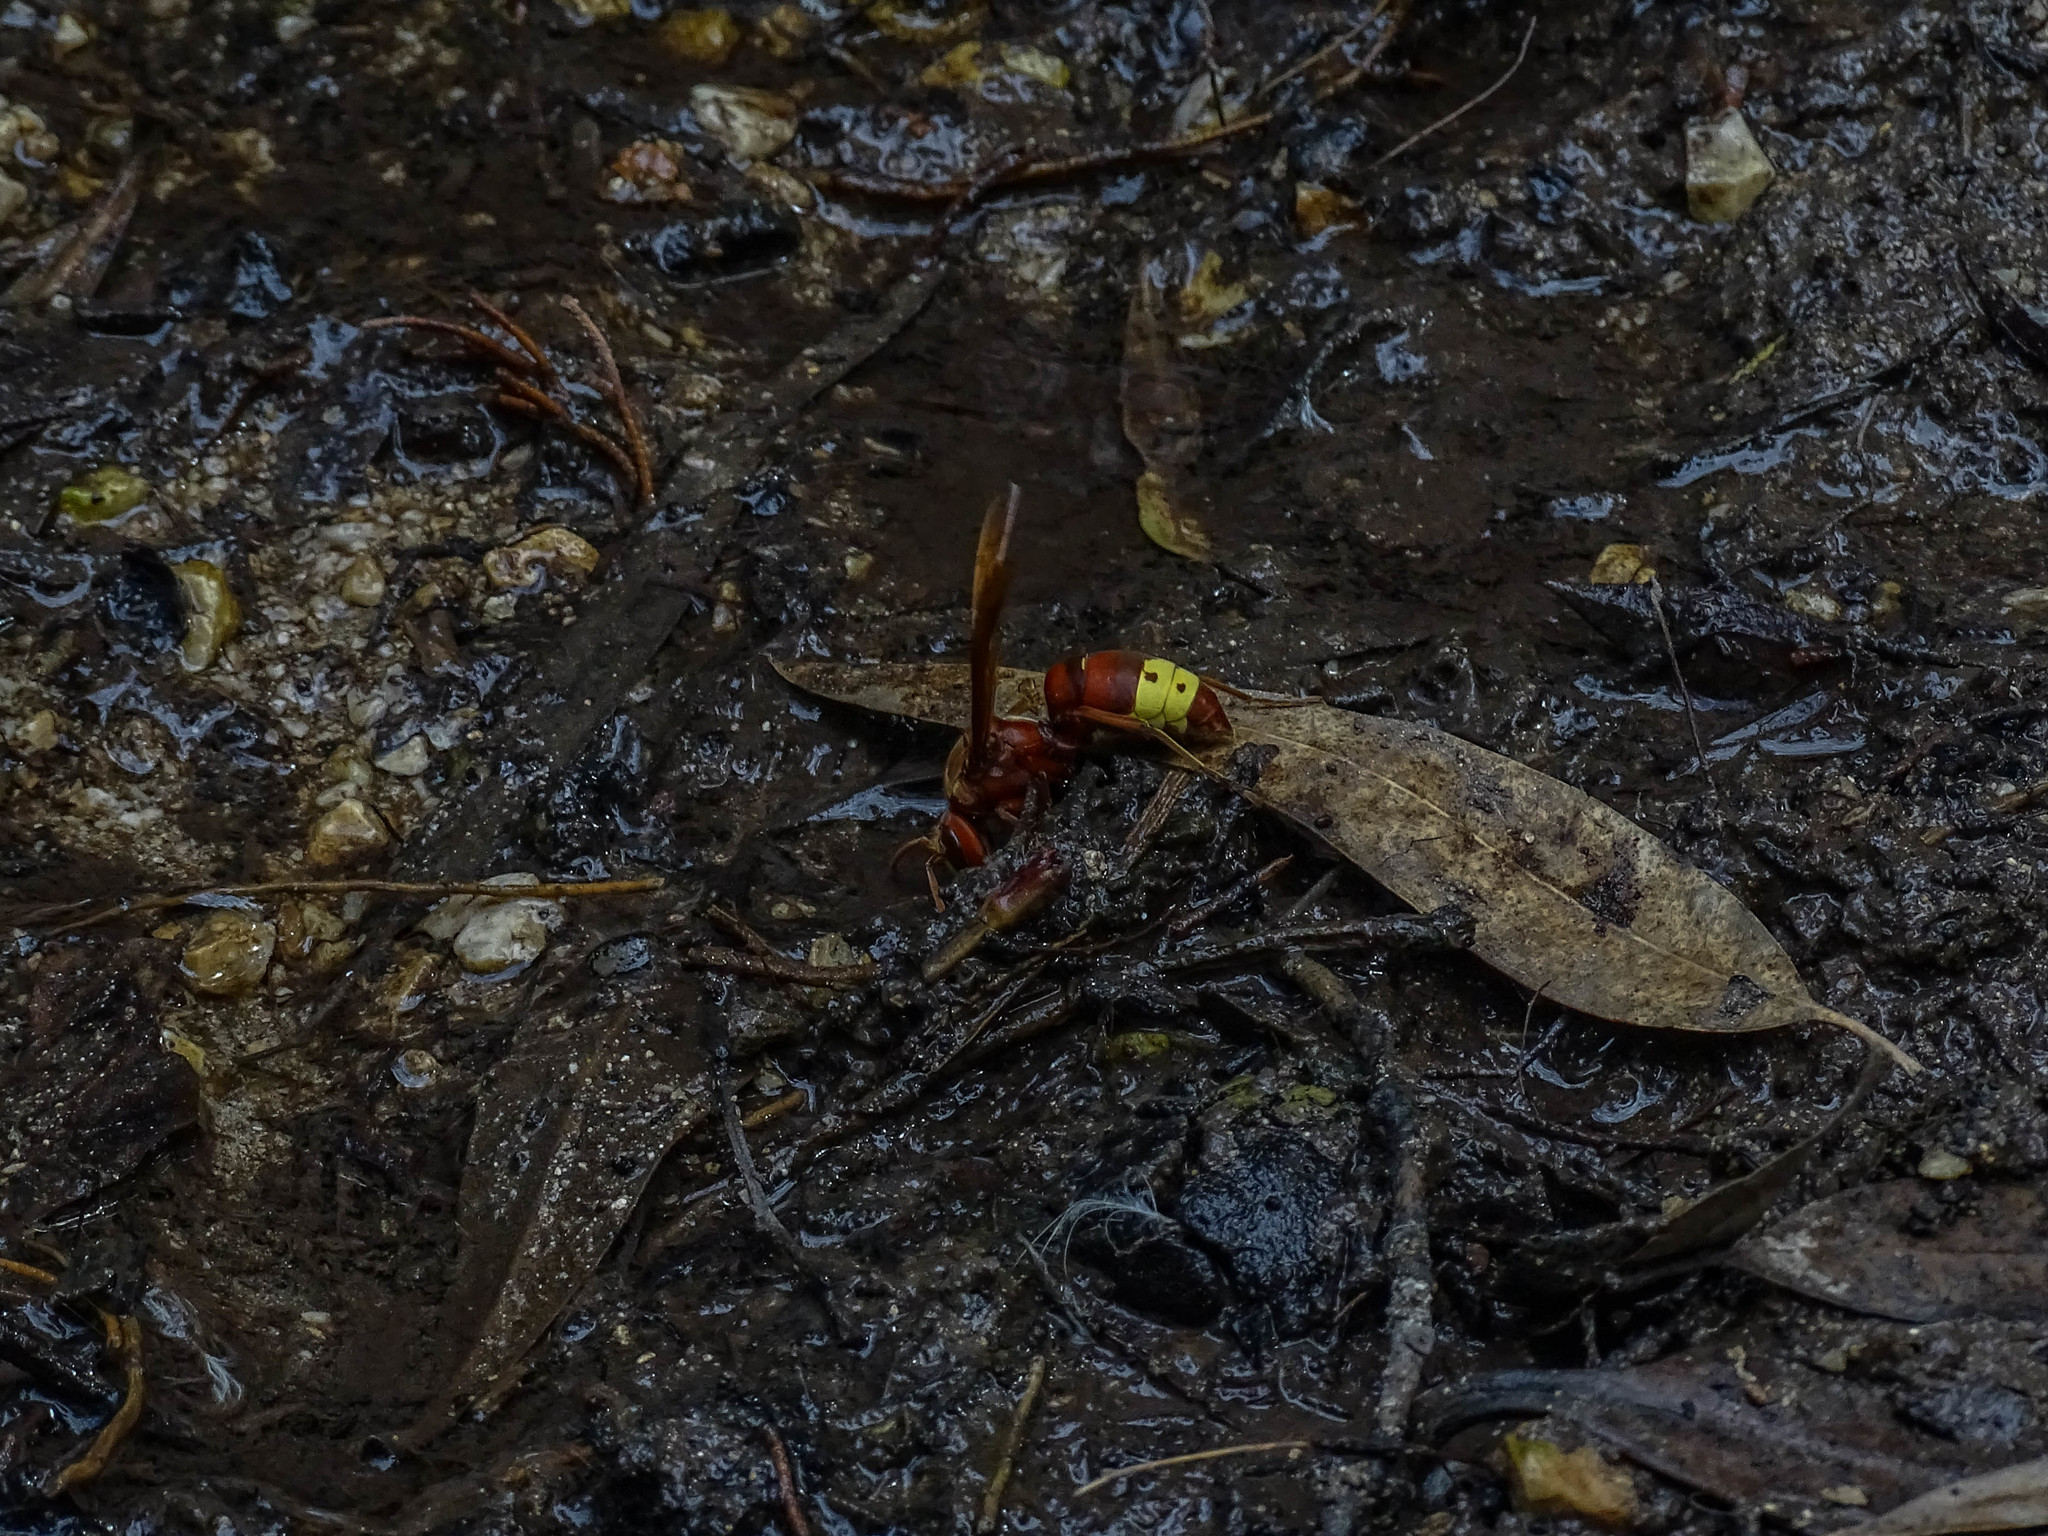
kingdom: Animalia
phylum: Arthropoda
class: Insecta
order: Hymenoptera
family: Vespidae
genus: Vespa
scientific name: Vespa orientalis
